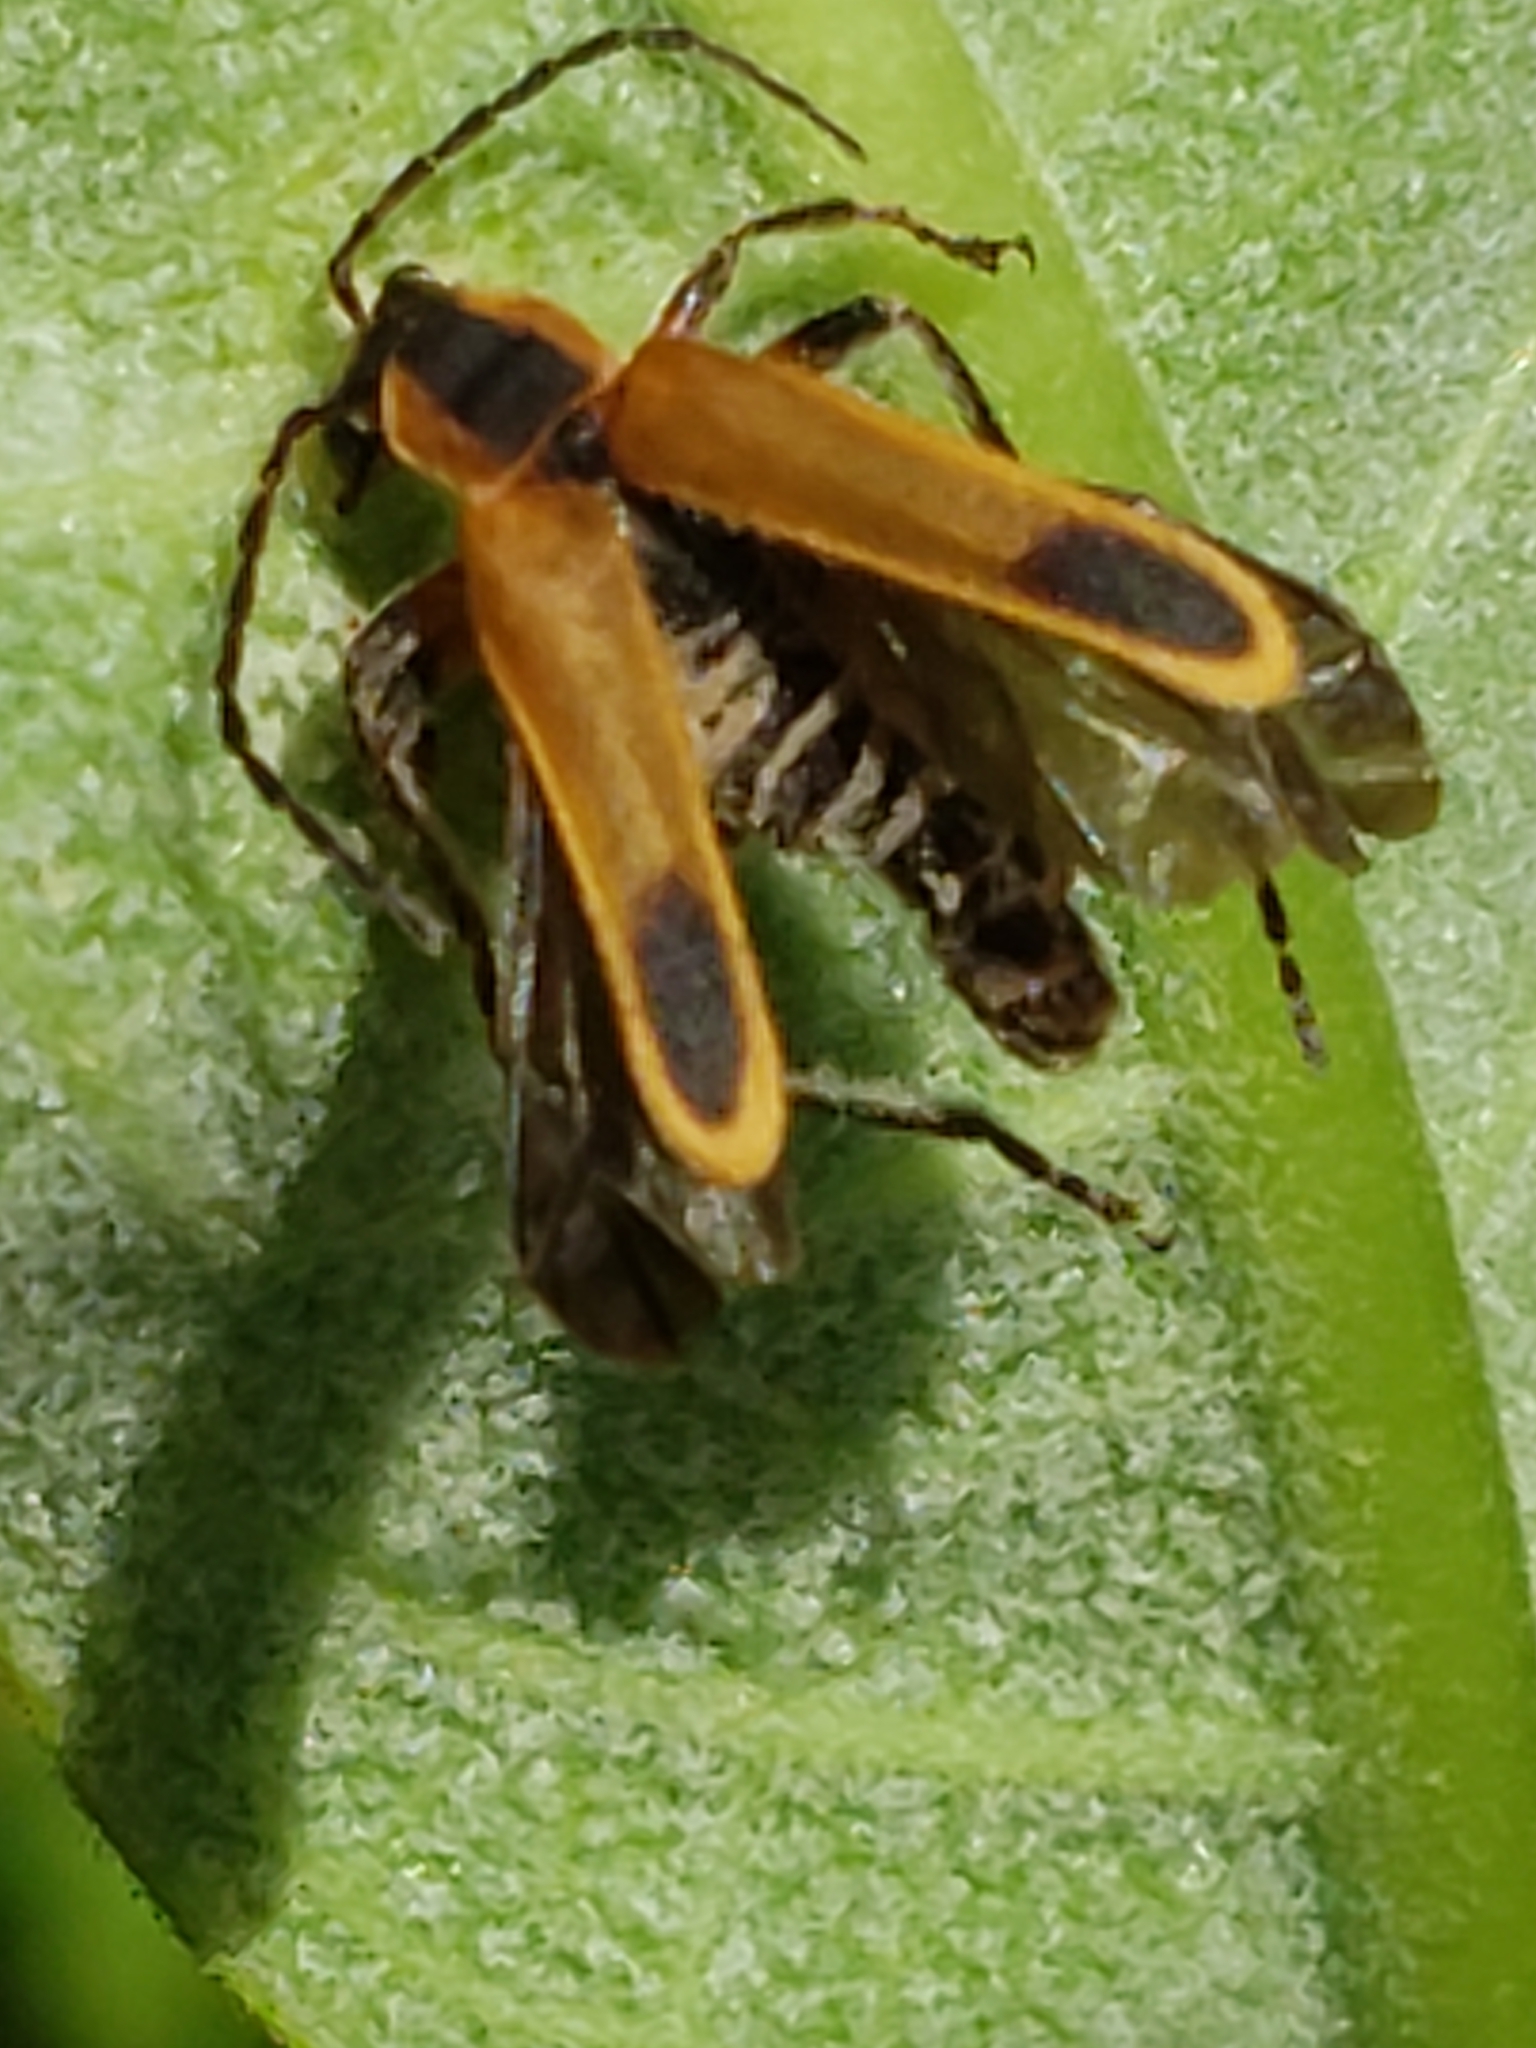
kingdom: Animalia
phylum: Arthropoda
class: Insecta
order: Coleoptera
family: Cantharidae
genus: Chauliognathus
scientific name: Chauliognathus marginatus
